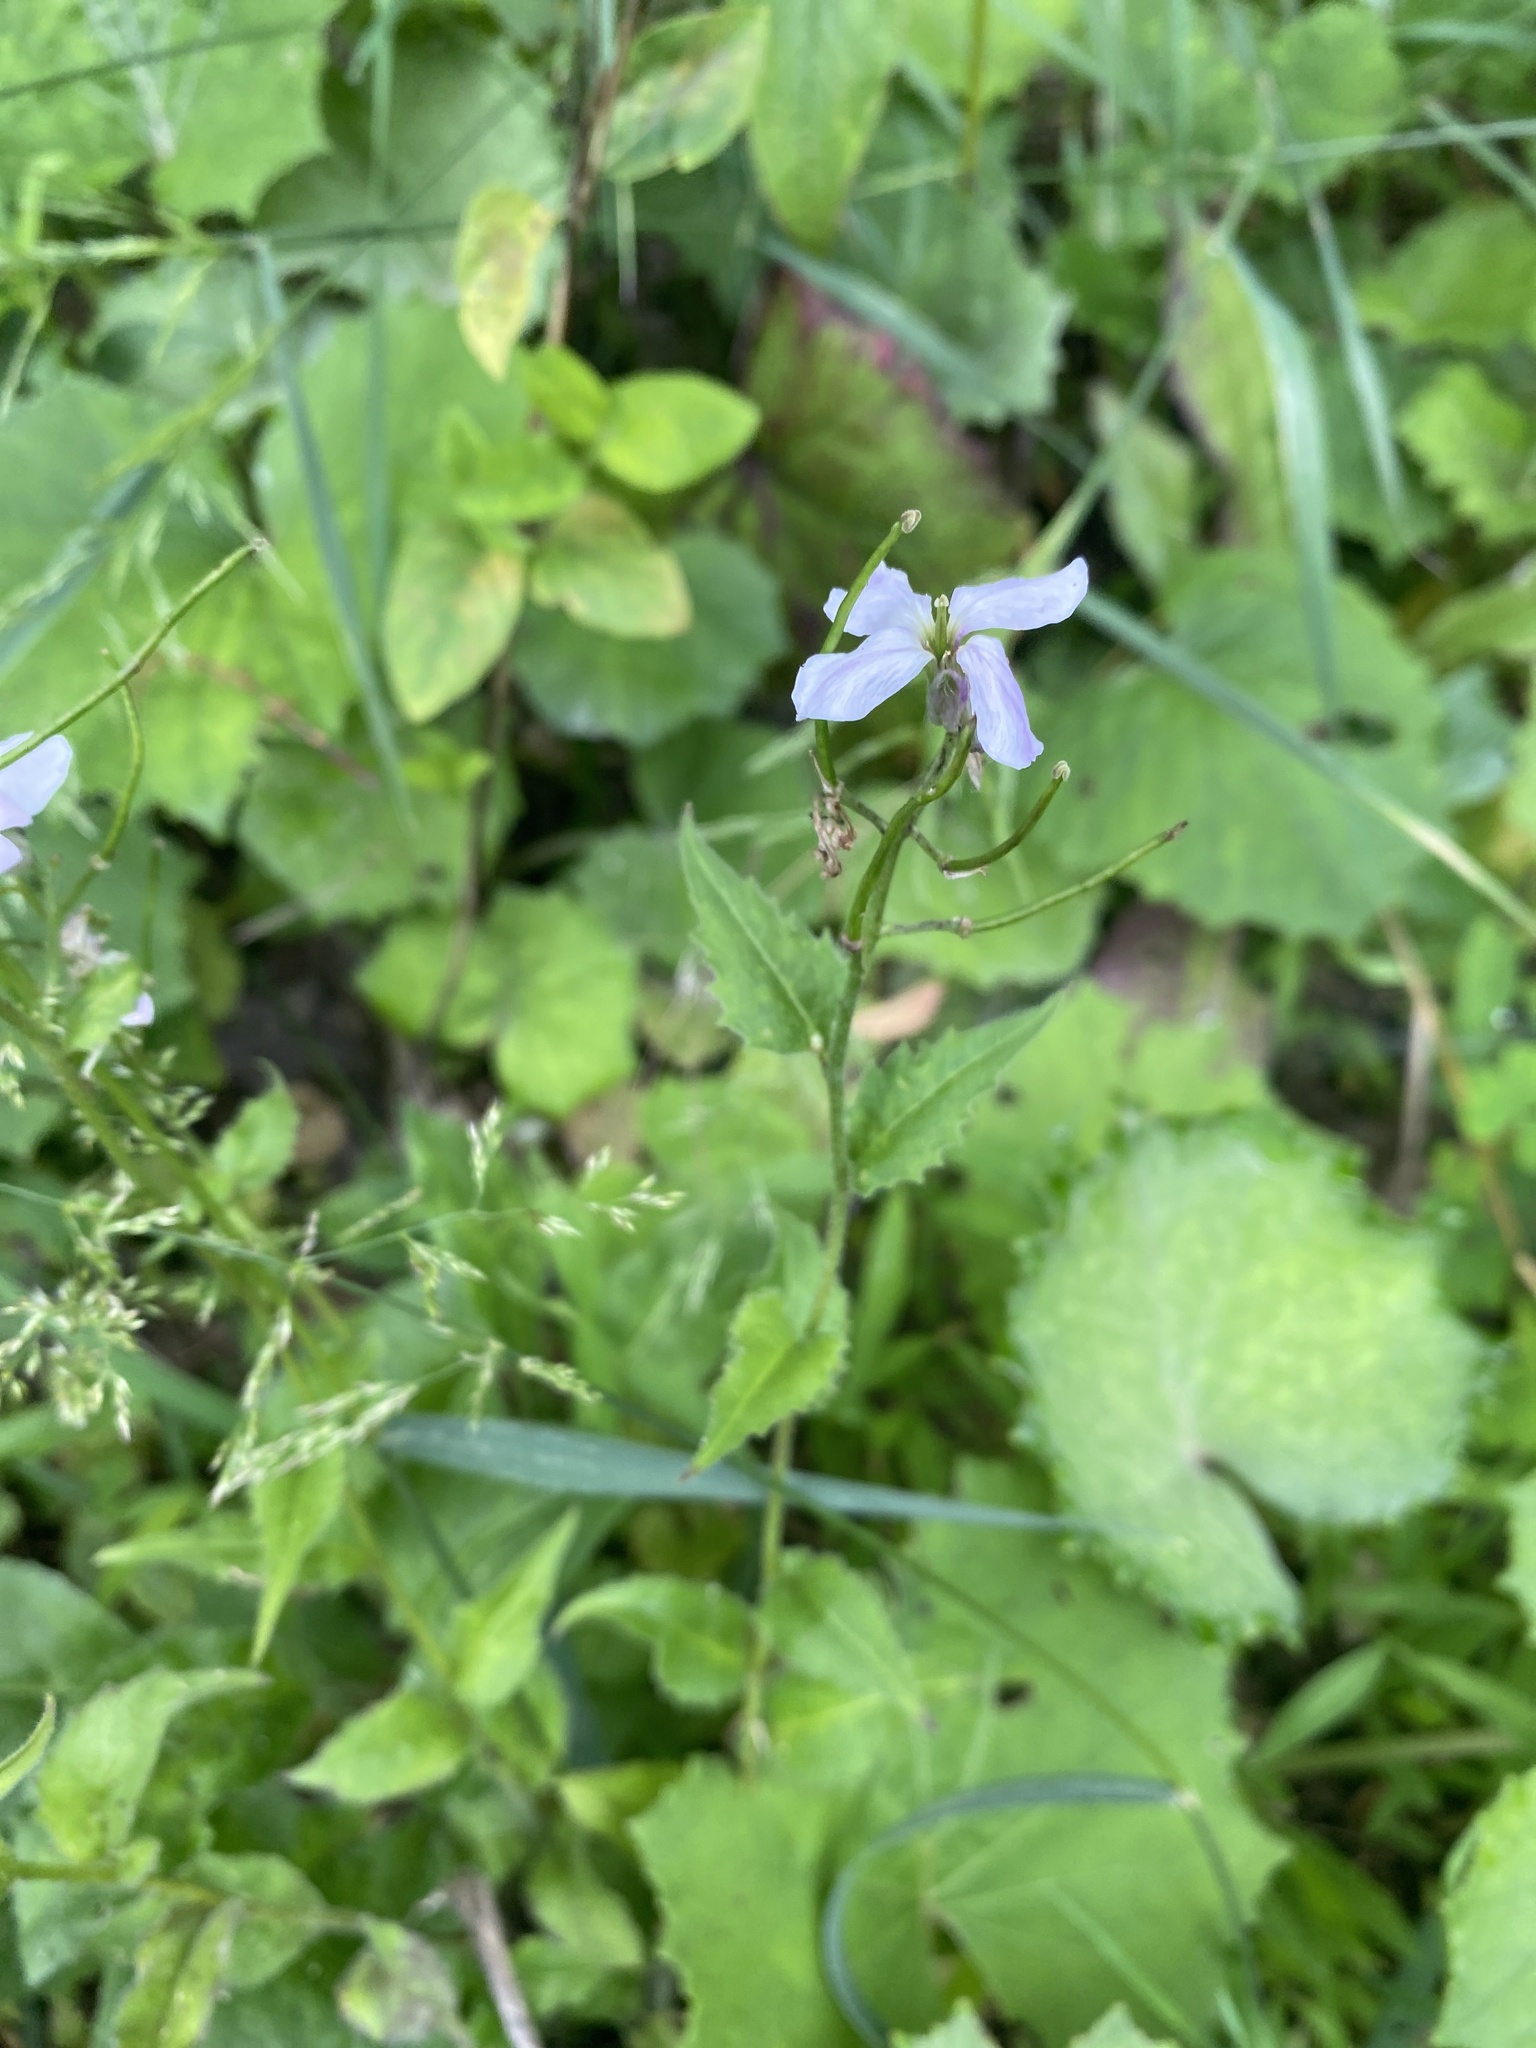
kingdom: Plantae
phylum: Tracheophyta
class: Magnoliopsida
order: Brassicales
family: Brassicaceae
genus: Hesperis
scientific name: Hesperis matronalis
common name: Dame's-violet
